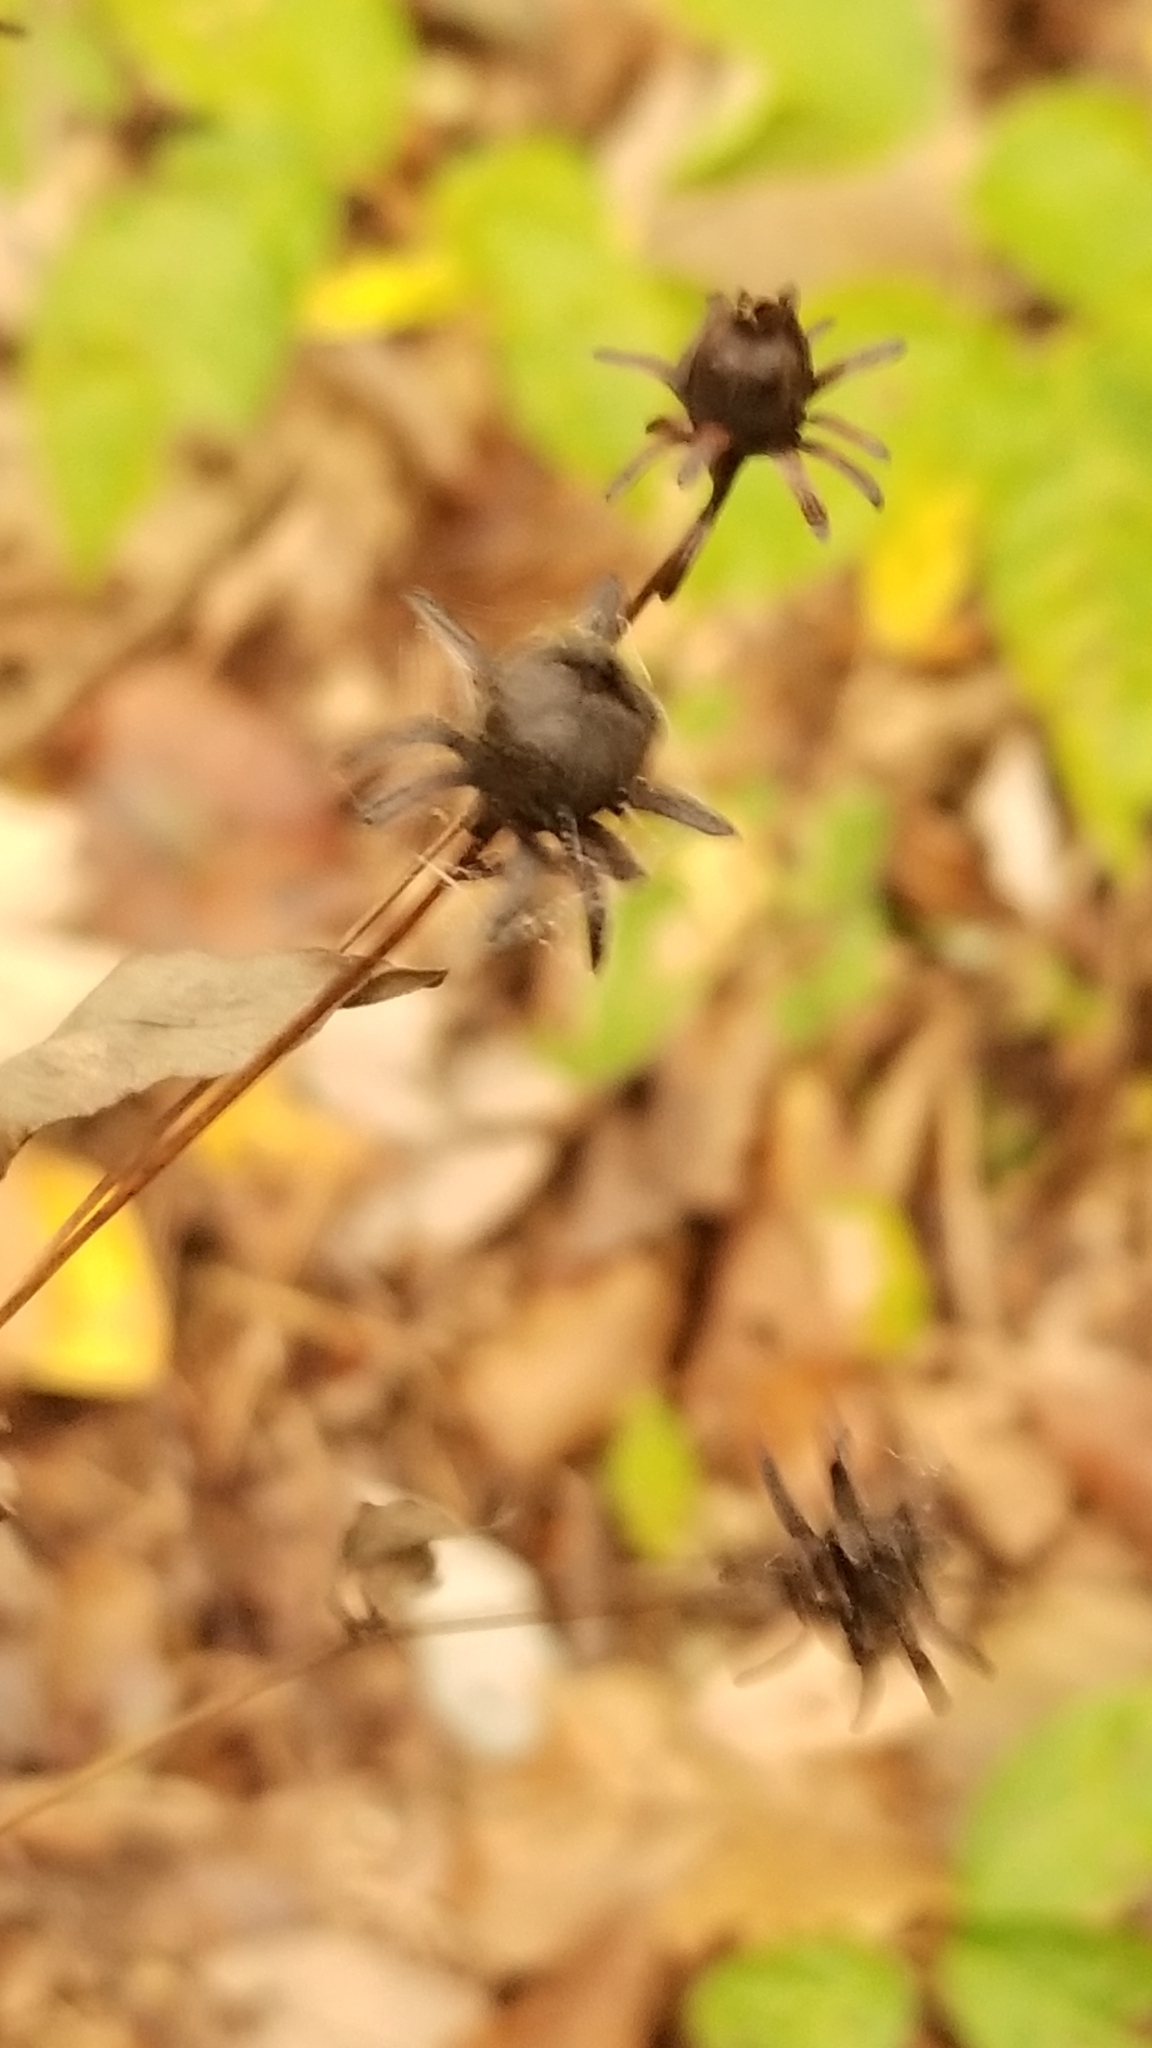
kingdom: Plantae
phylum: Tracheophyta
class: Magnoliopsida
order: Asterales
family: Asteraceae
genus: Coreopsis
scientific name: Coreopsis major
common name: Forest tickseed
